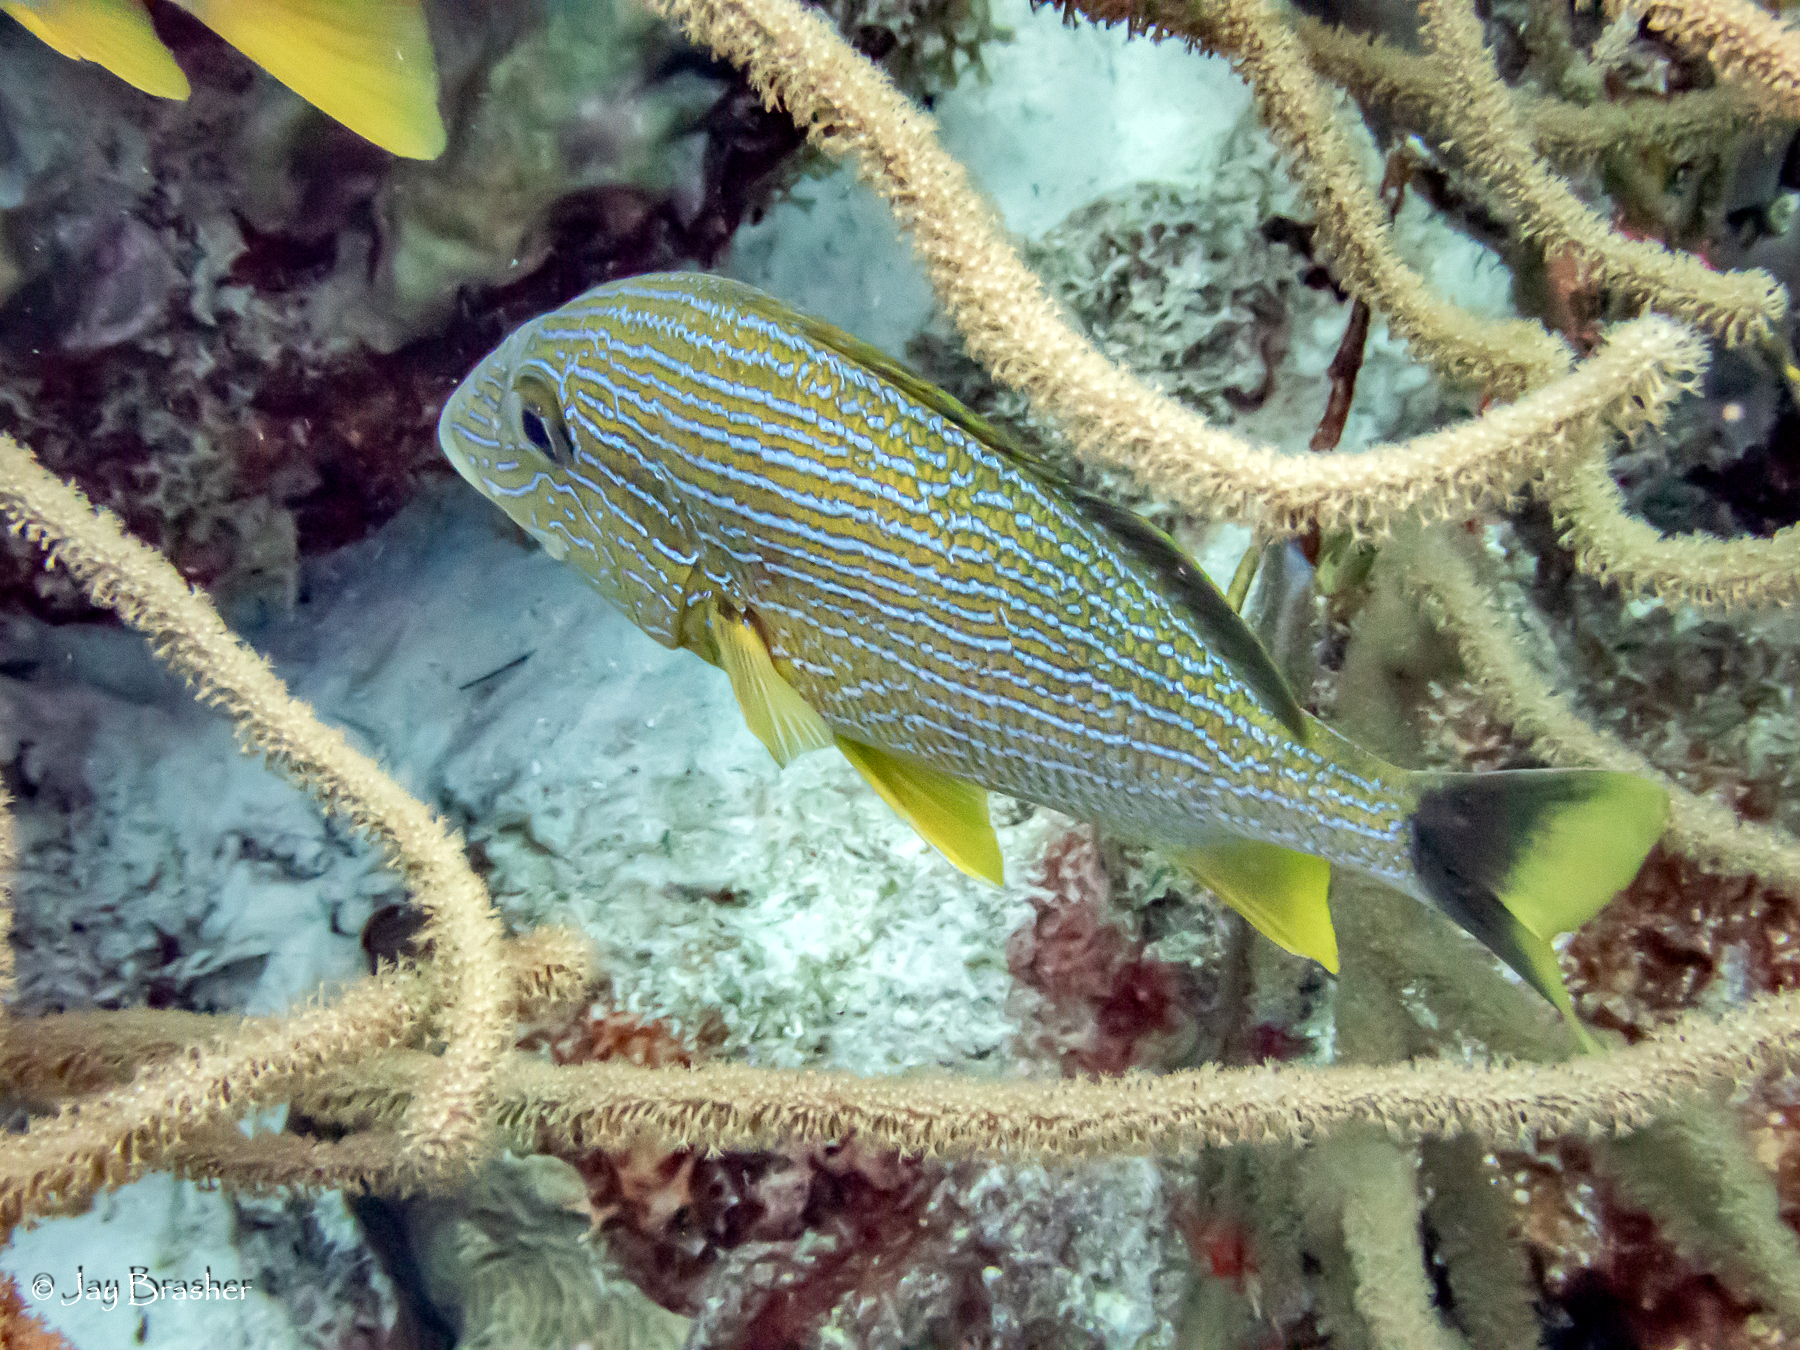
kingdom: Animalia
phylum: Chordata
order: Perciformes
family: Haemulidae
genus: Haemulon
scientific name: Haemulon sciurus
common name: Bluestriped grunt
